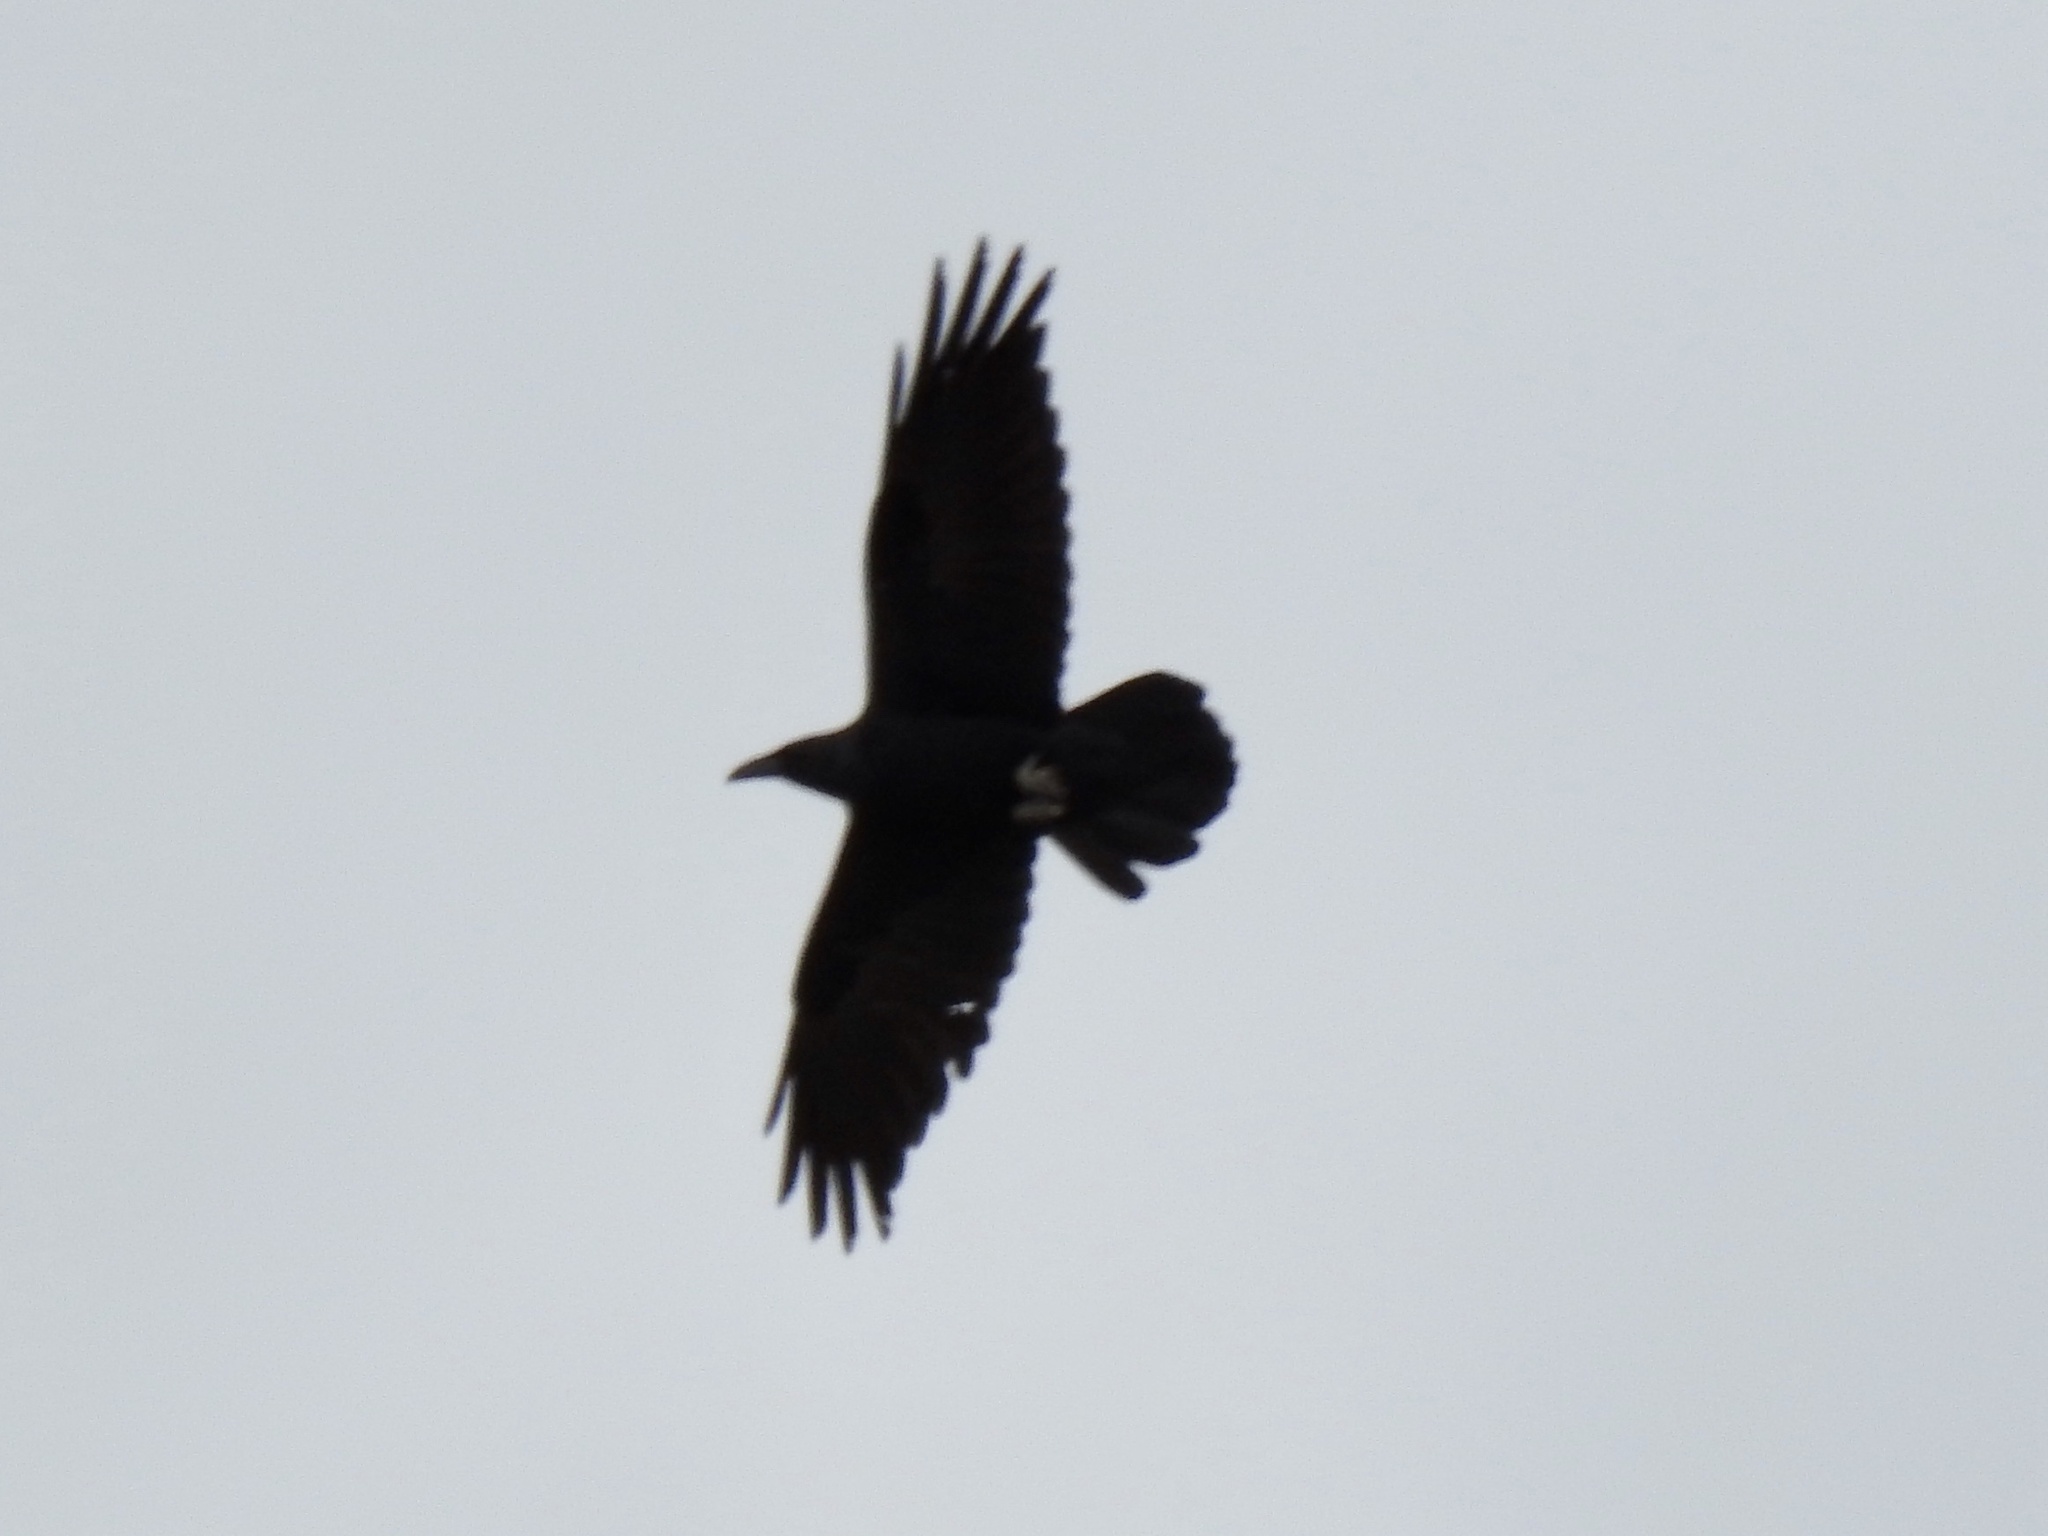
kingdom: Animalia
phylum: Chordata
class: Aves
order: Passeriformes
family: Corvidae
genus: Corvus
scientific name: Corvus corax
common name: Common raven
